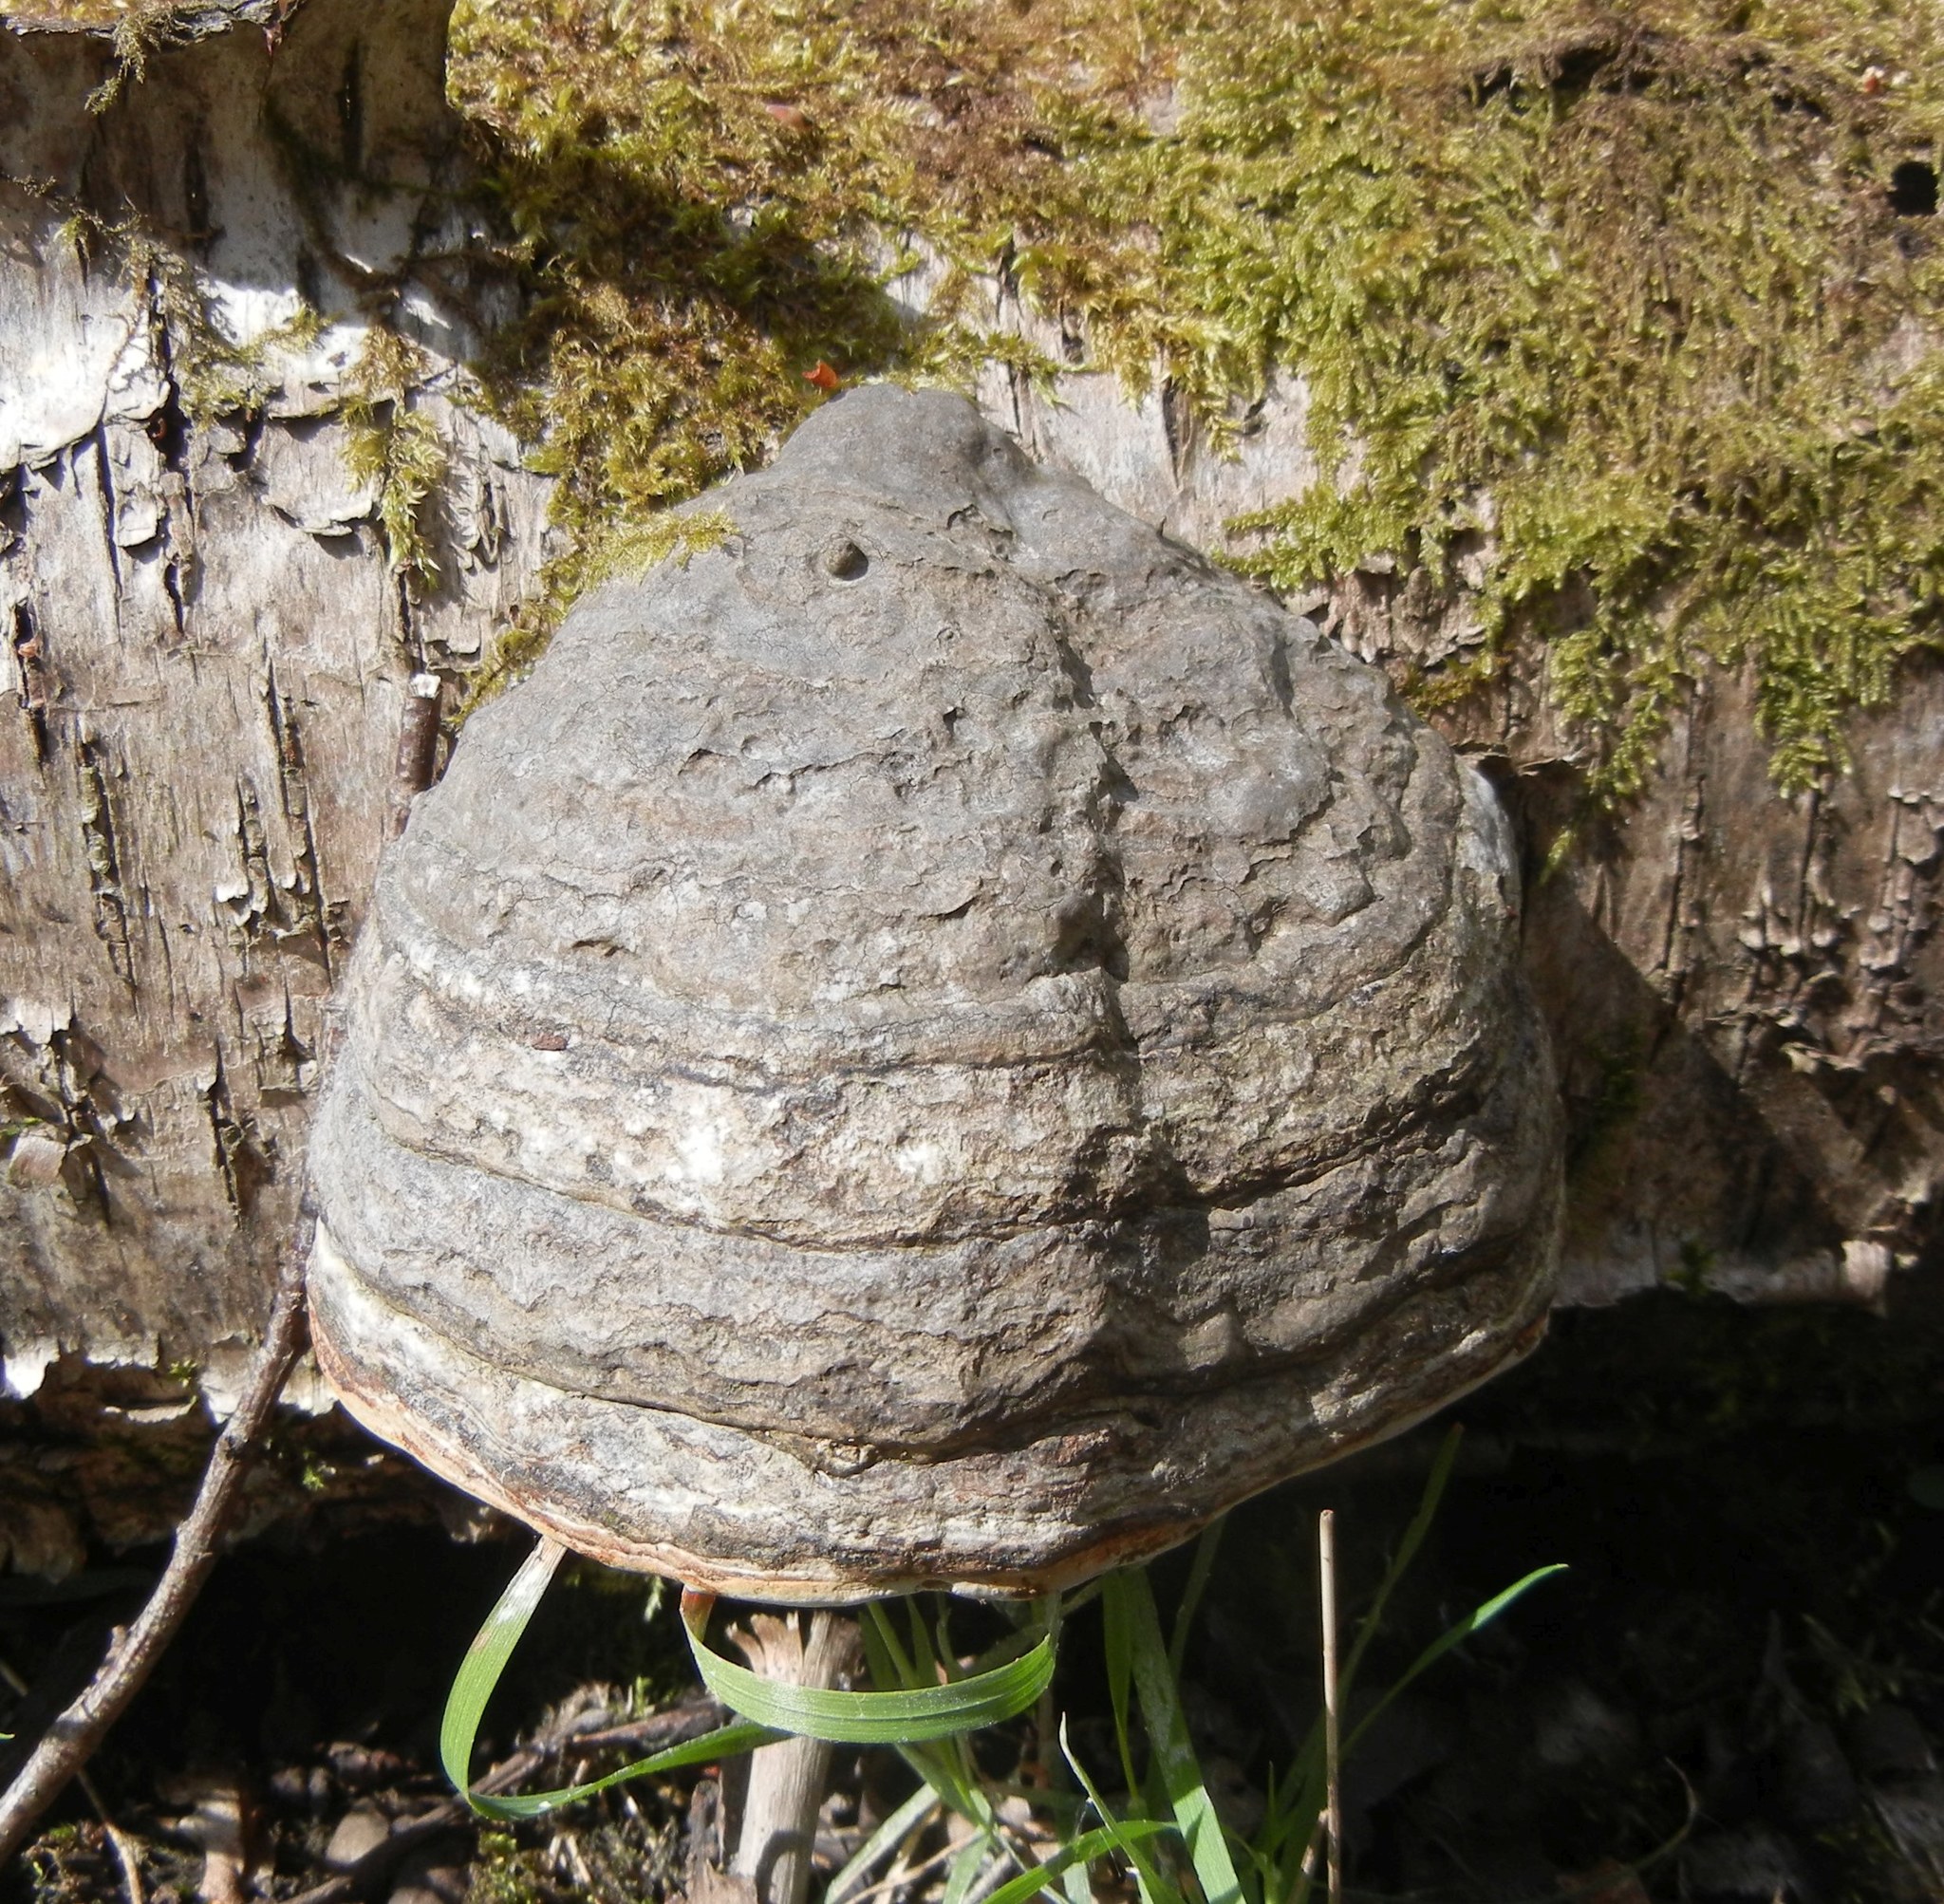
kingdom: Fungi
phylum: Basidiomycota
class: Agaricomycetes
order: Polyporales
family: Polyporaceae
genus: Fomes
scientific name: Fomes fomentarius
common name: Hoof fungus
